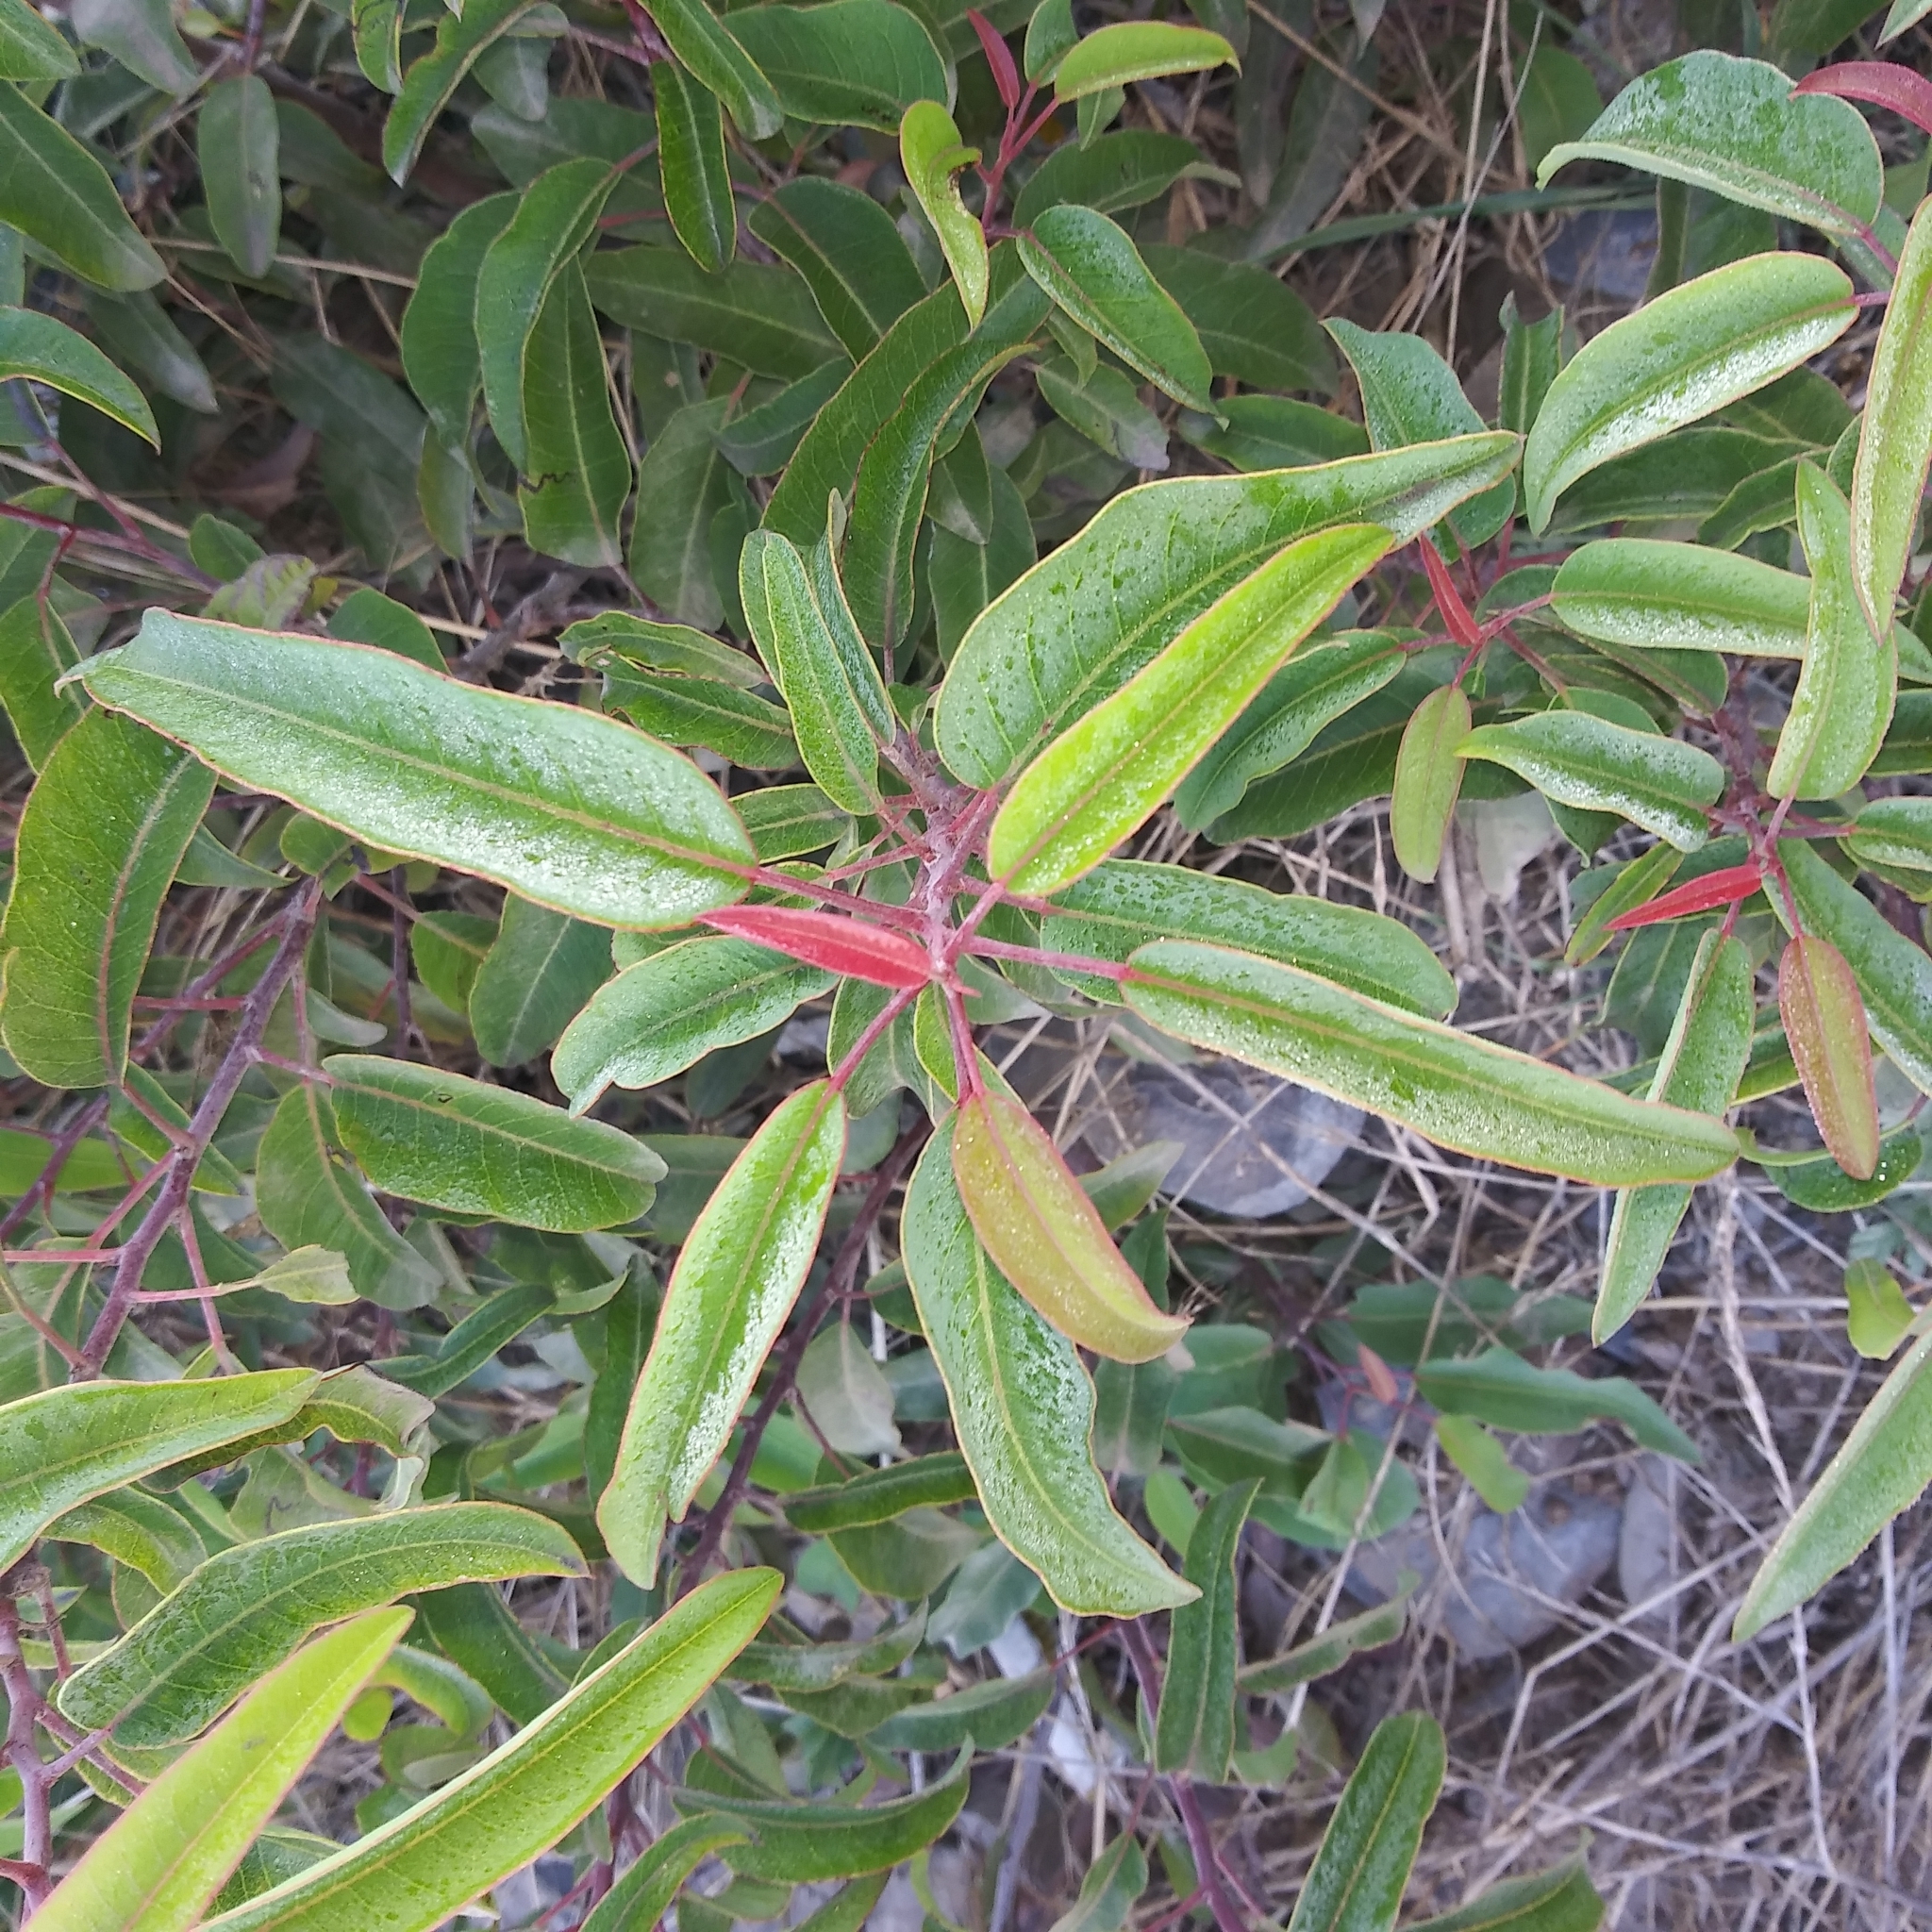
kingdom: Plantae
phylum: Tracheophyta
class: Magnoliopsida
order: Sapindales
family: Anacardiaceae
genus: Malosma
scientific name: Malosma laurina
